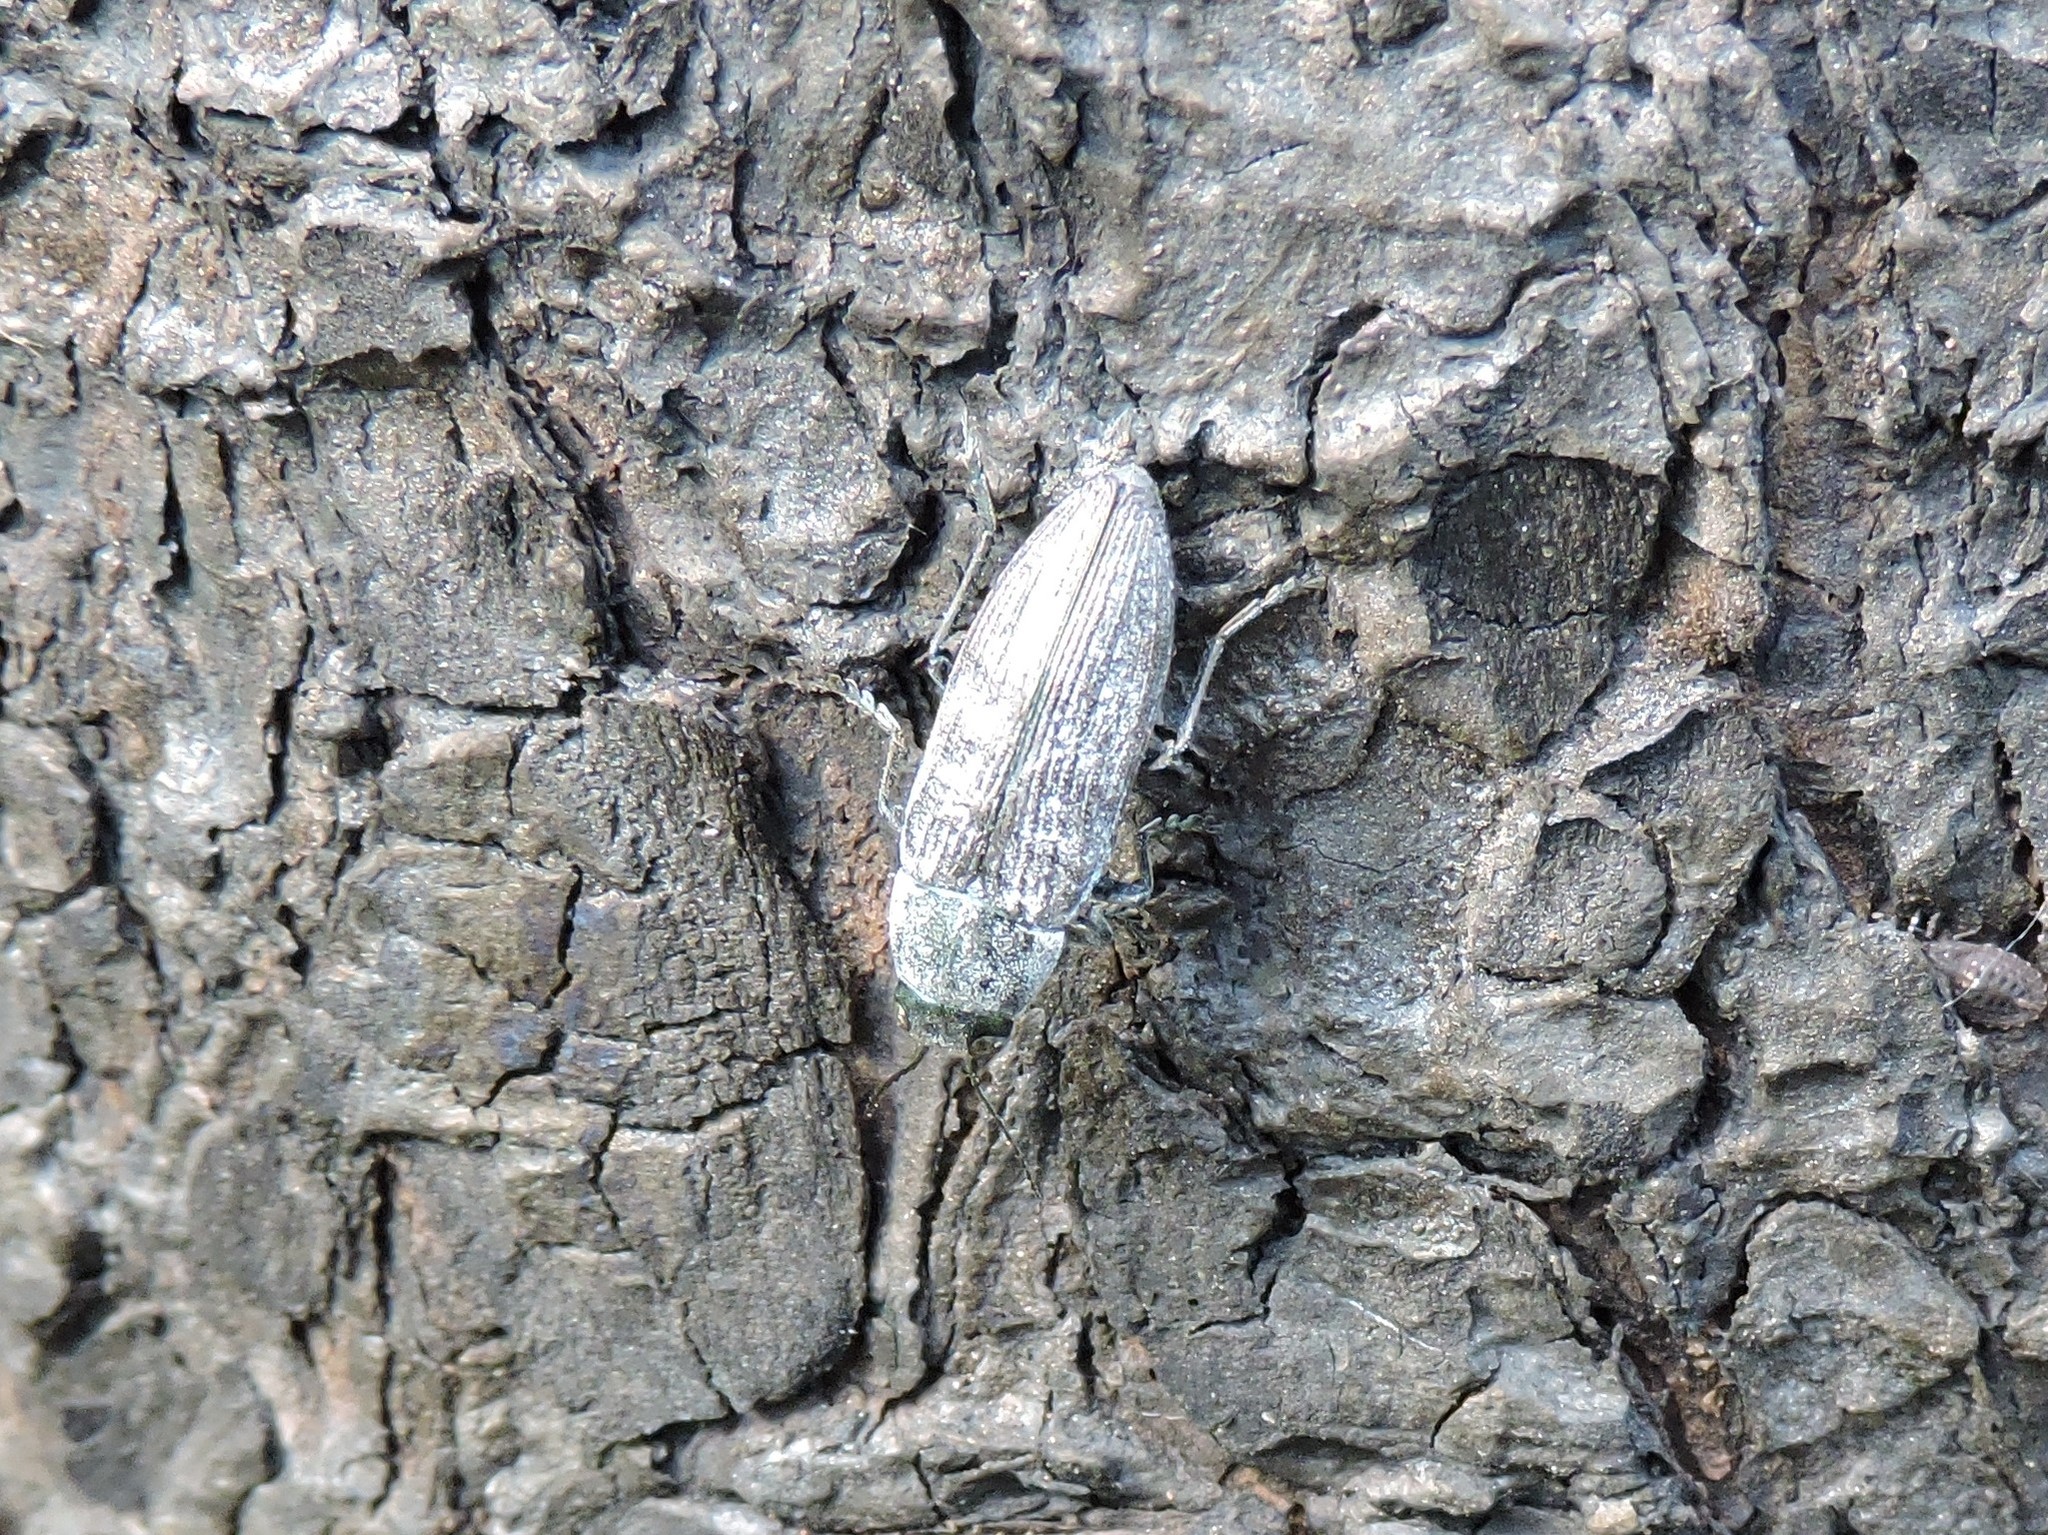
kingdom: Animalia
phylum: Arthropoda
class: Insecta
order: Coleoptera
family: Buprestidae
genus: Buprestis
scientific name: Buprestis haemorrhoidalis
